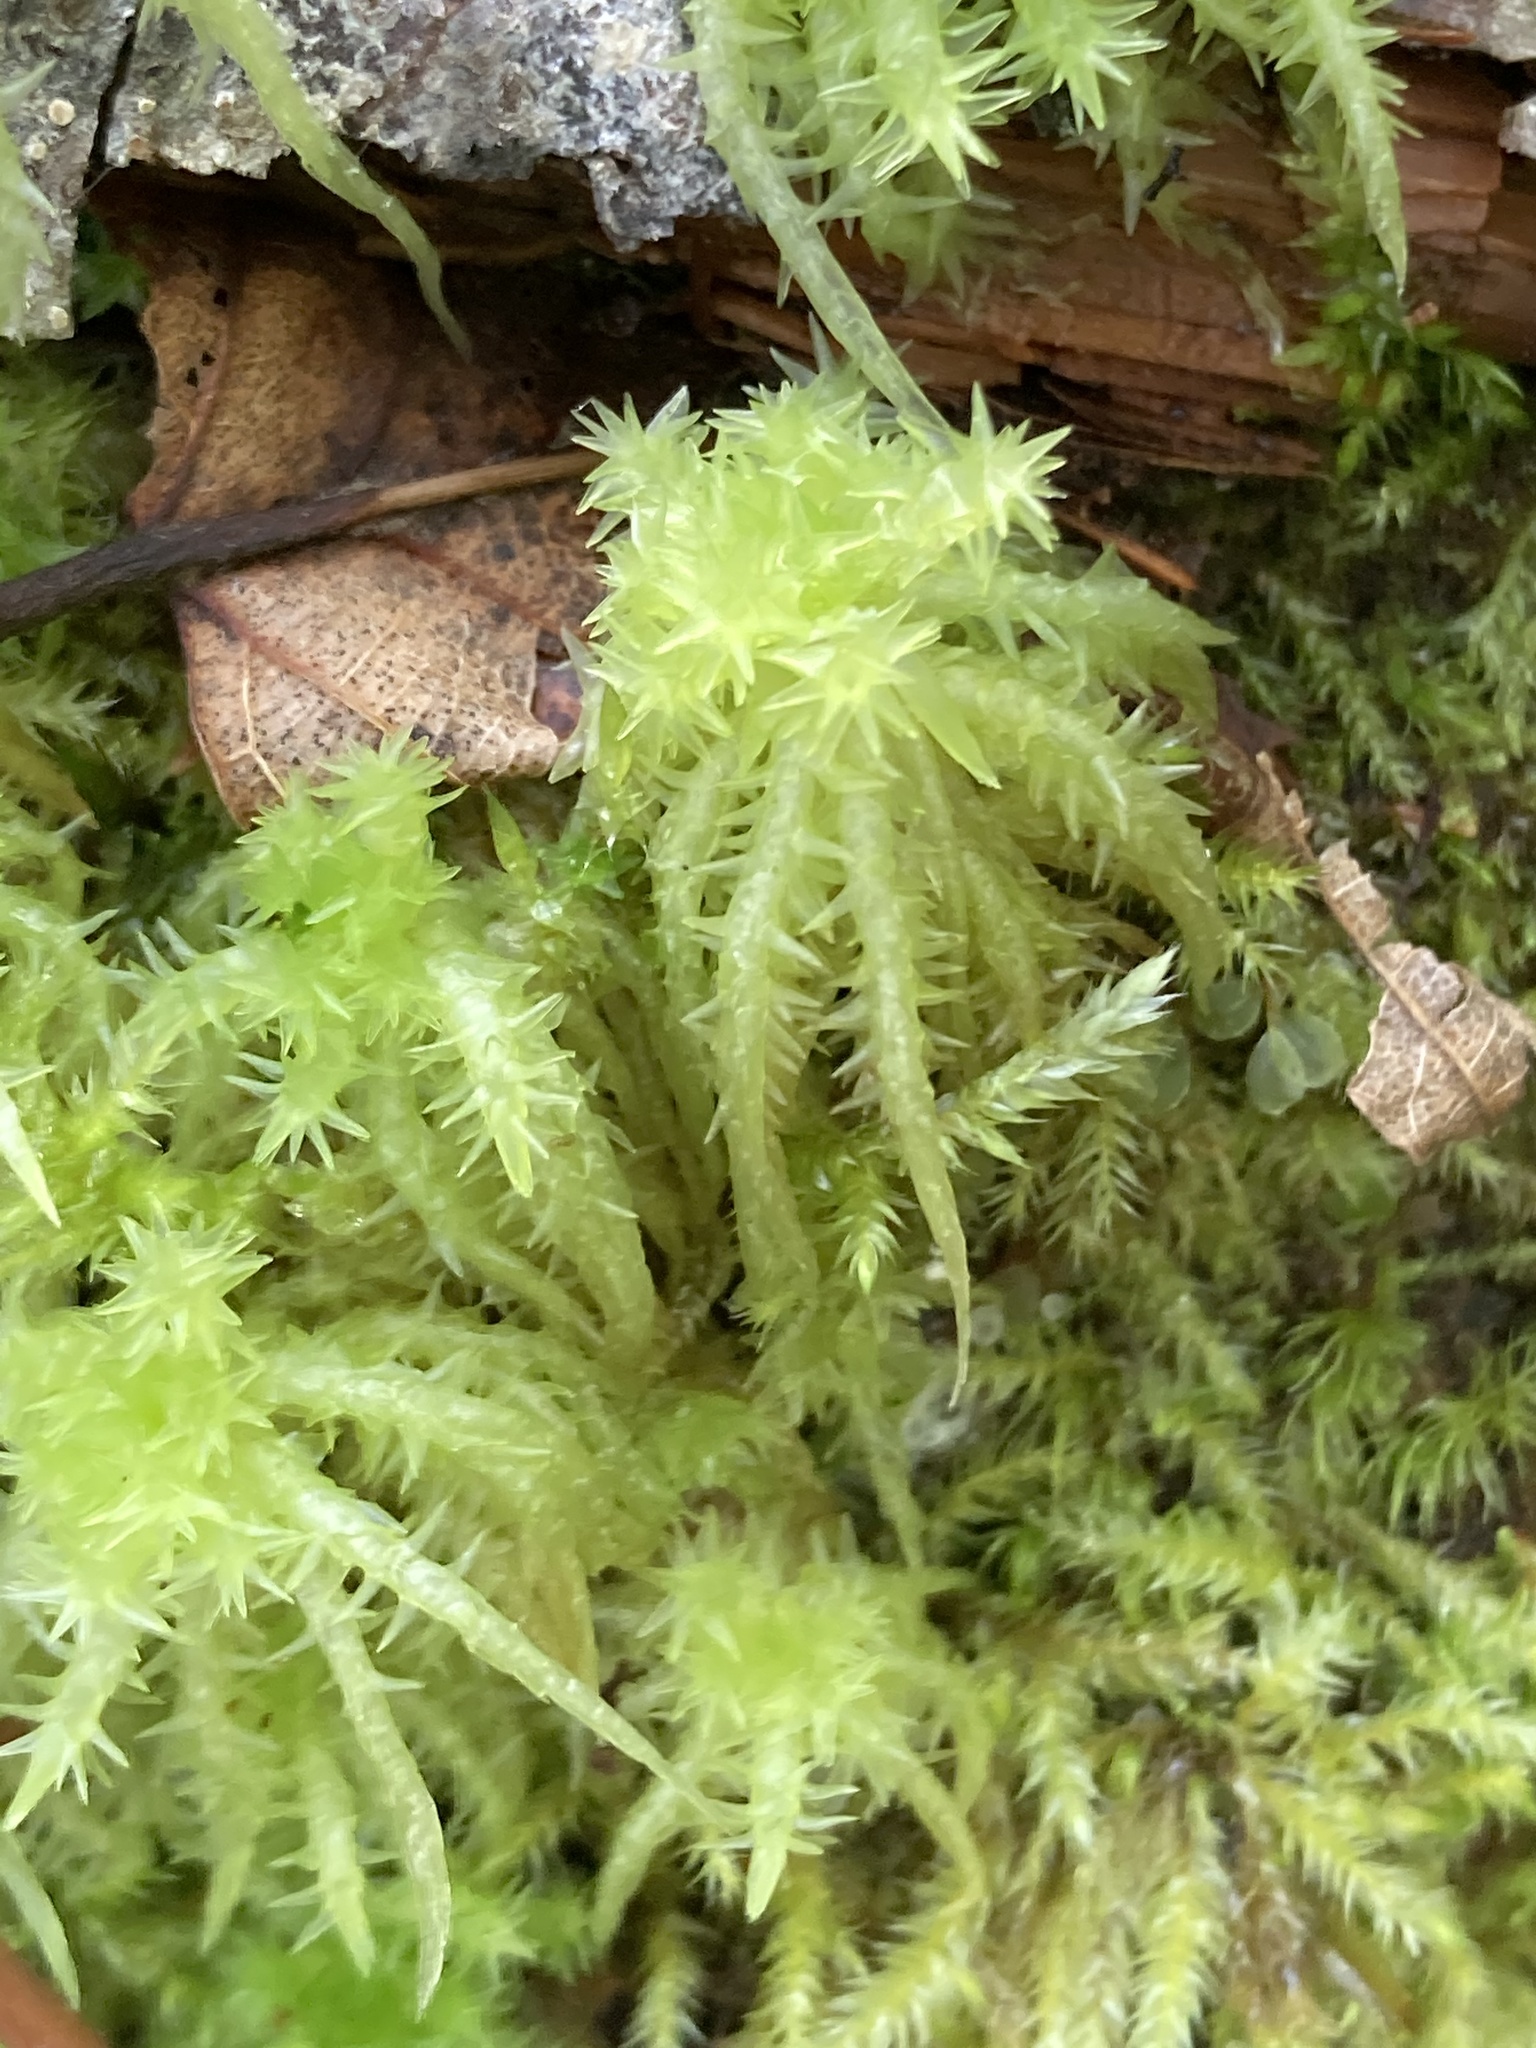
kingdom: Plantae
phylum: Bryophyta
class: Sphagnopsida
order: Sphagnales
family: Sphagnaceae
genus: Sphagnum
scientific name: Sphagnum squarrosum
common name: Shaggy peat moss
